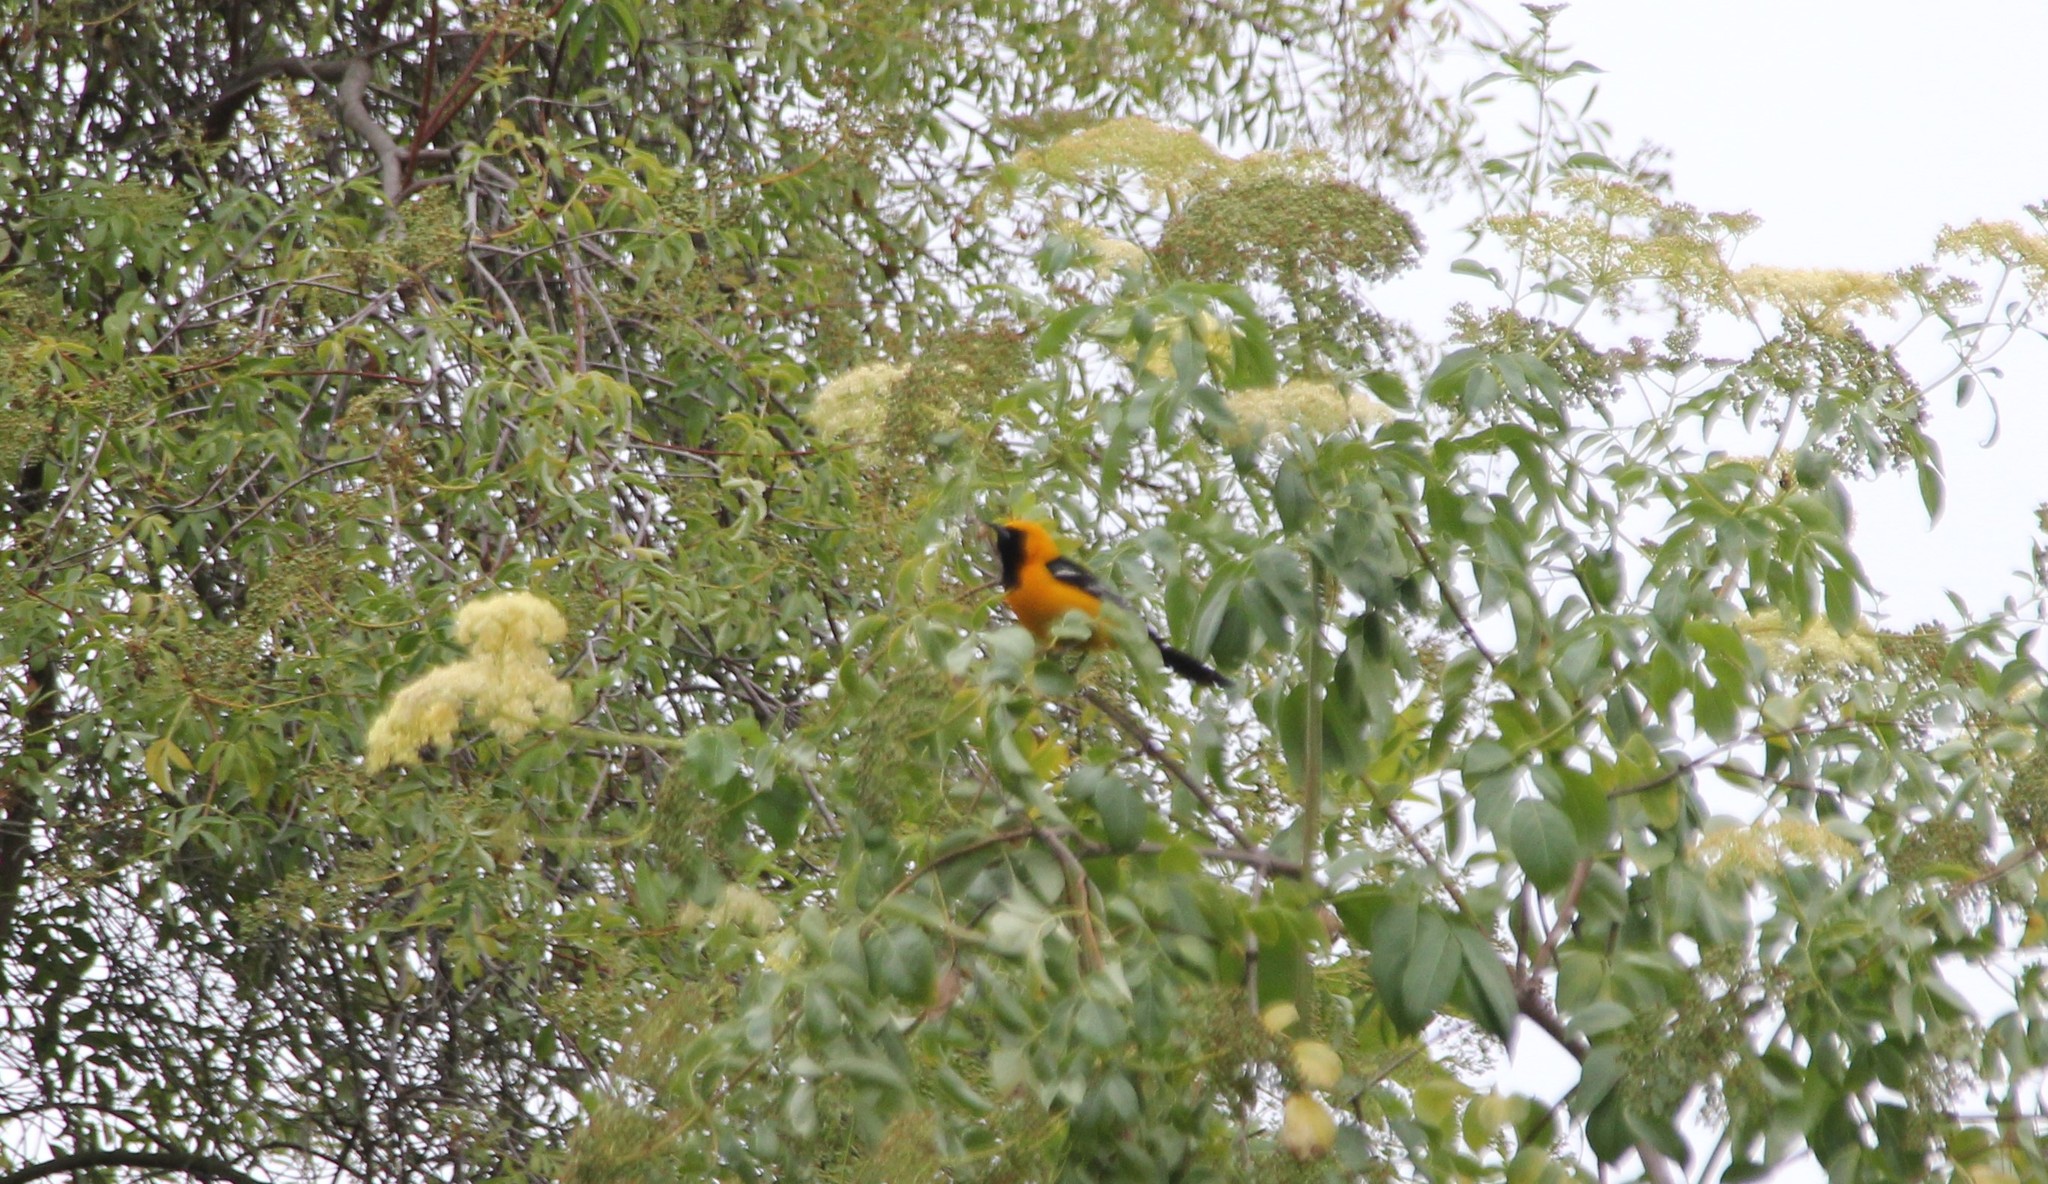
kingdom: Animalia
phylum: Chordata
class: Aves
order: Passeriformes
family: Icteridae
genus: Icterus
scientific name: Icterus cucullatus
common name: Hooded oriole
